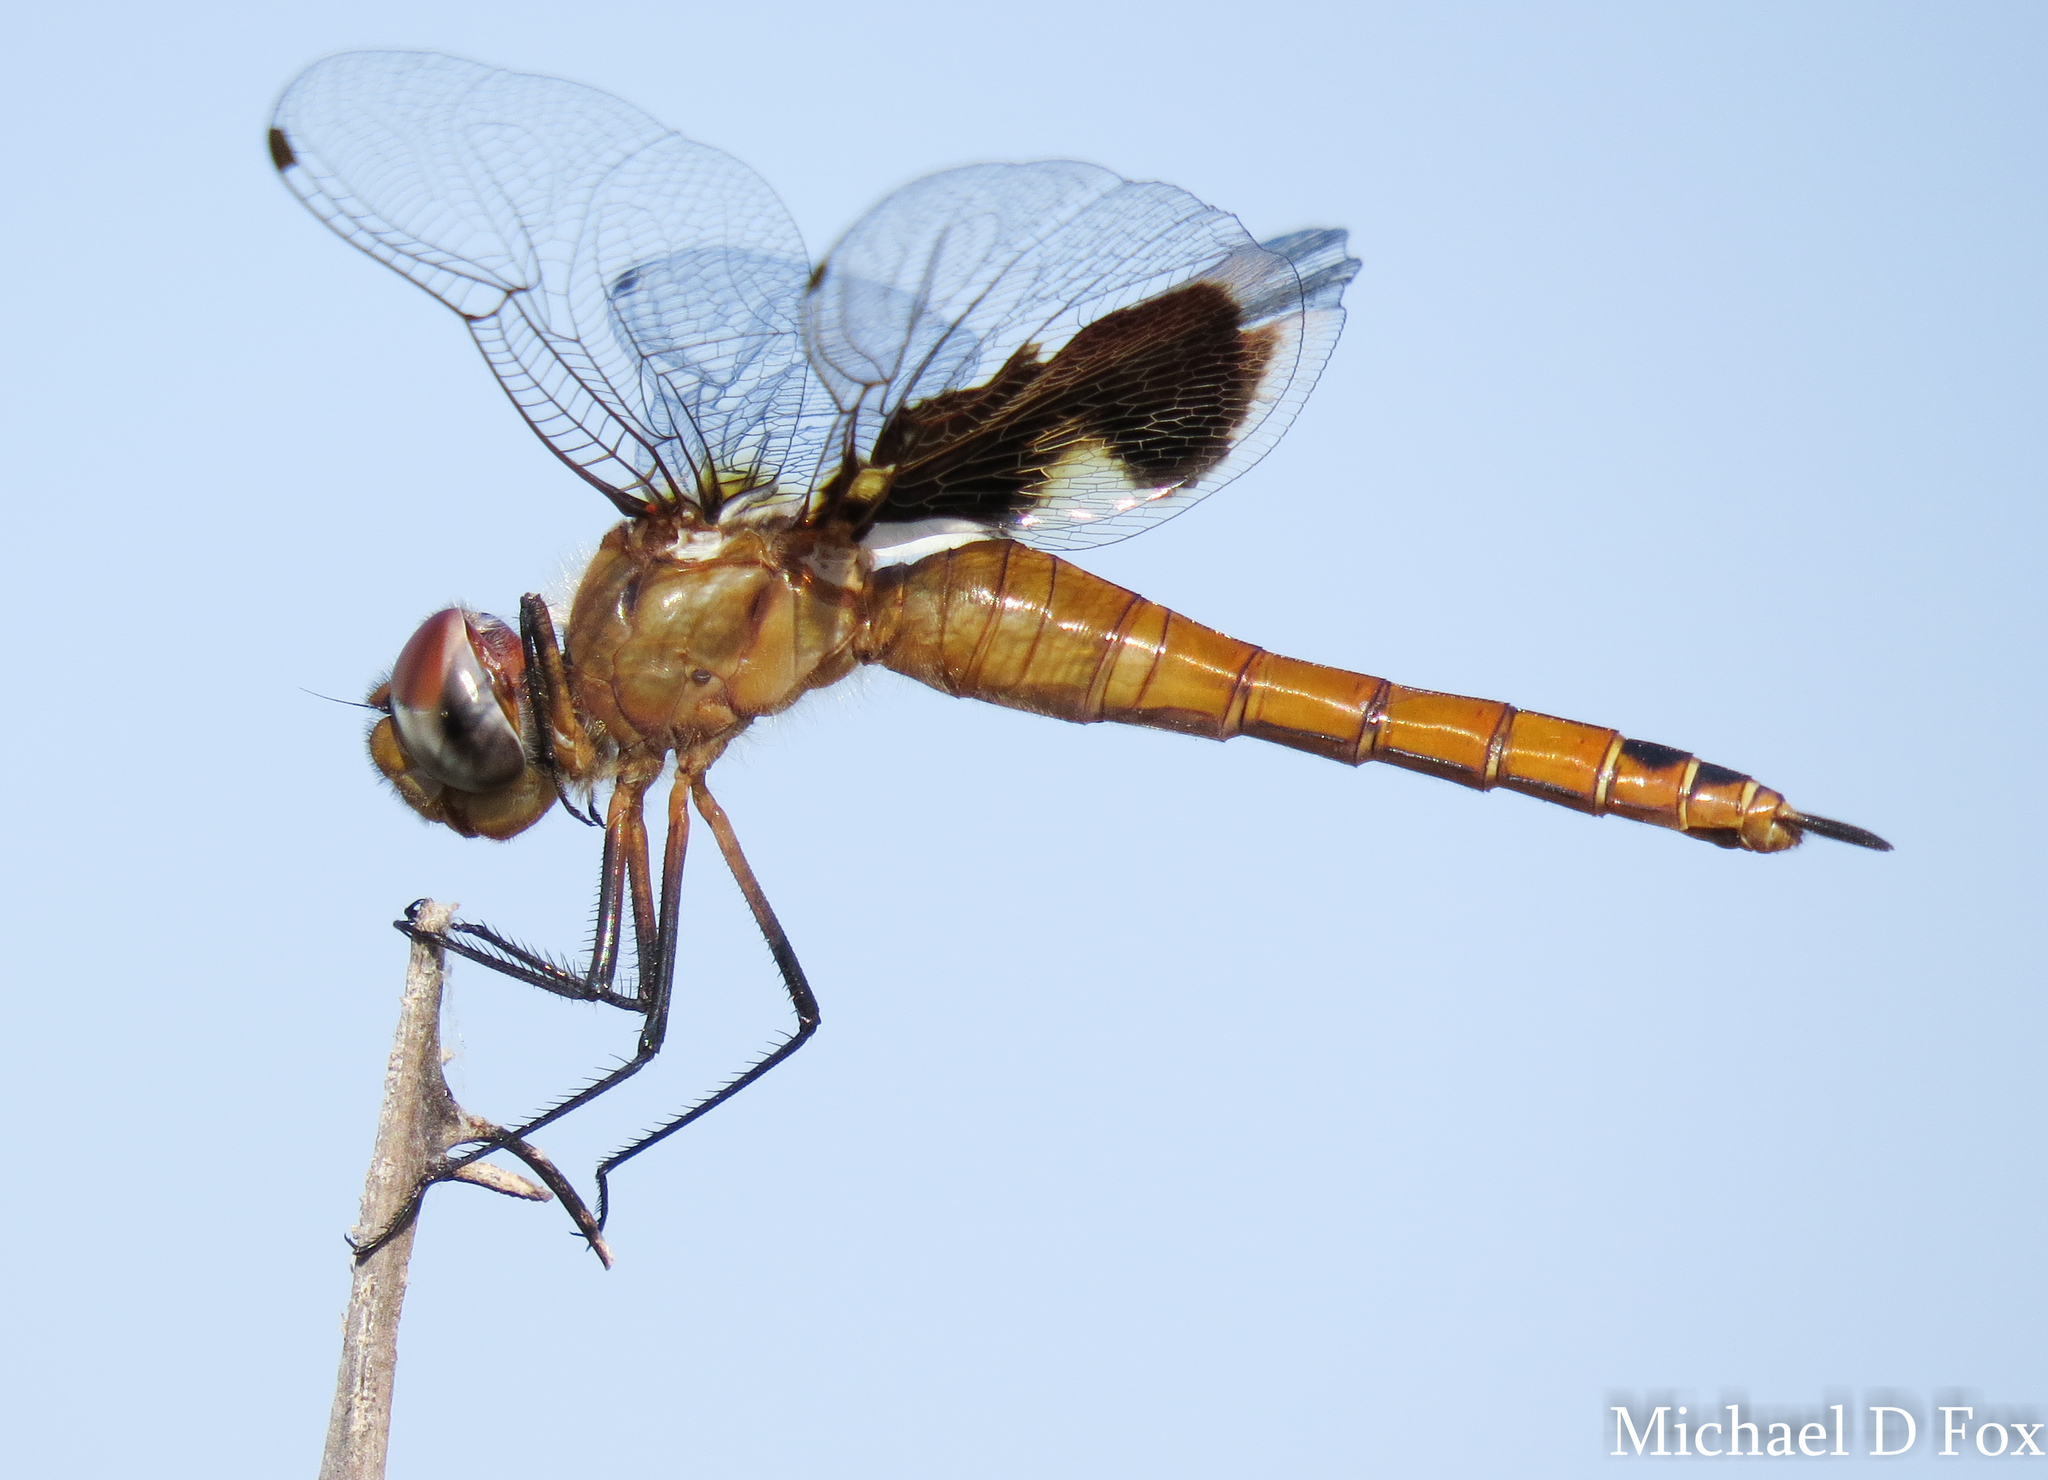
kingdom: Animalia
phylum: Arthropoda
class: Insecta
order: Odonata
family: Libellulidae
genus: Tramea
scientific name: Tramea onusta
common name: Red saddlebags
